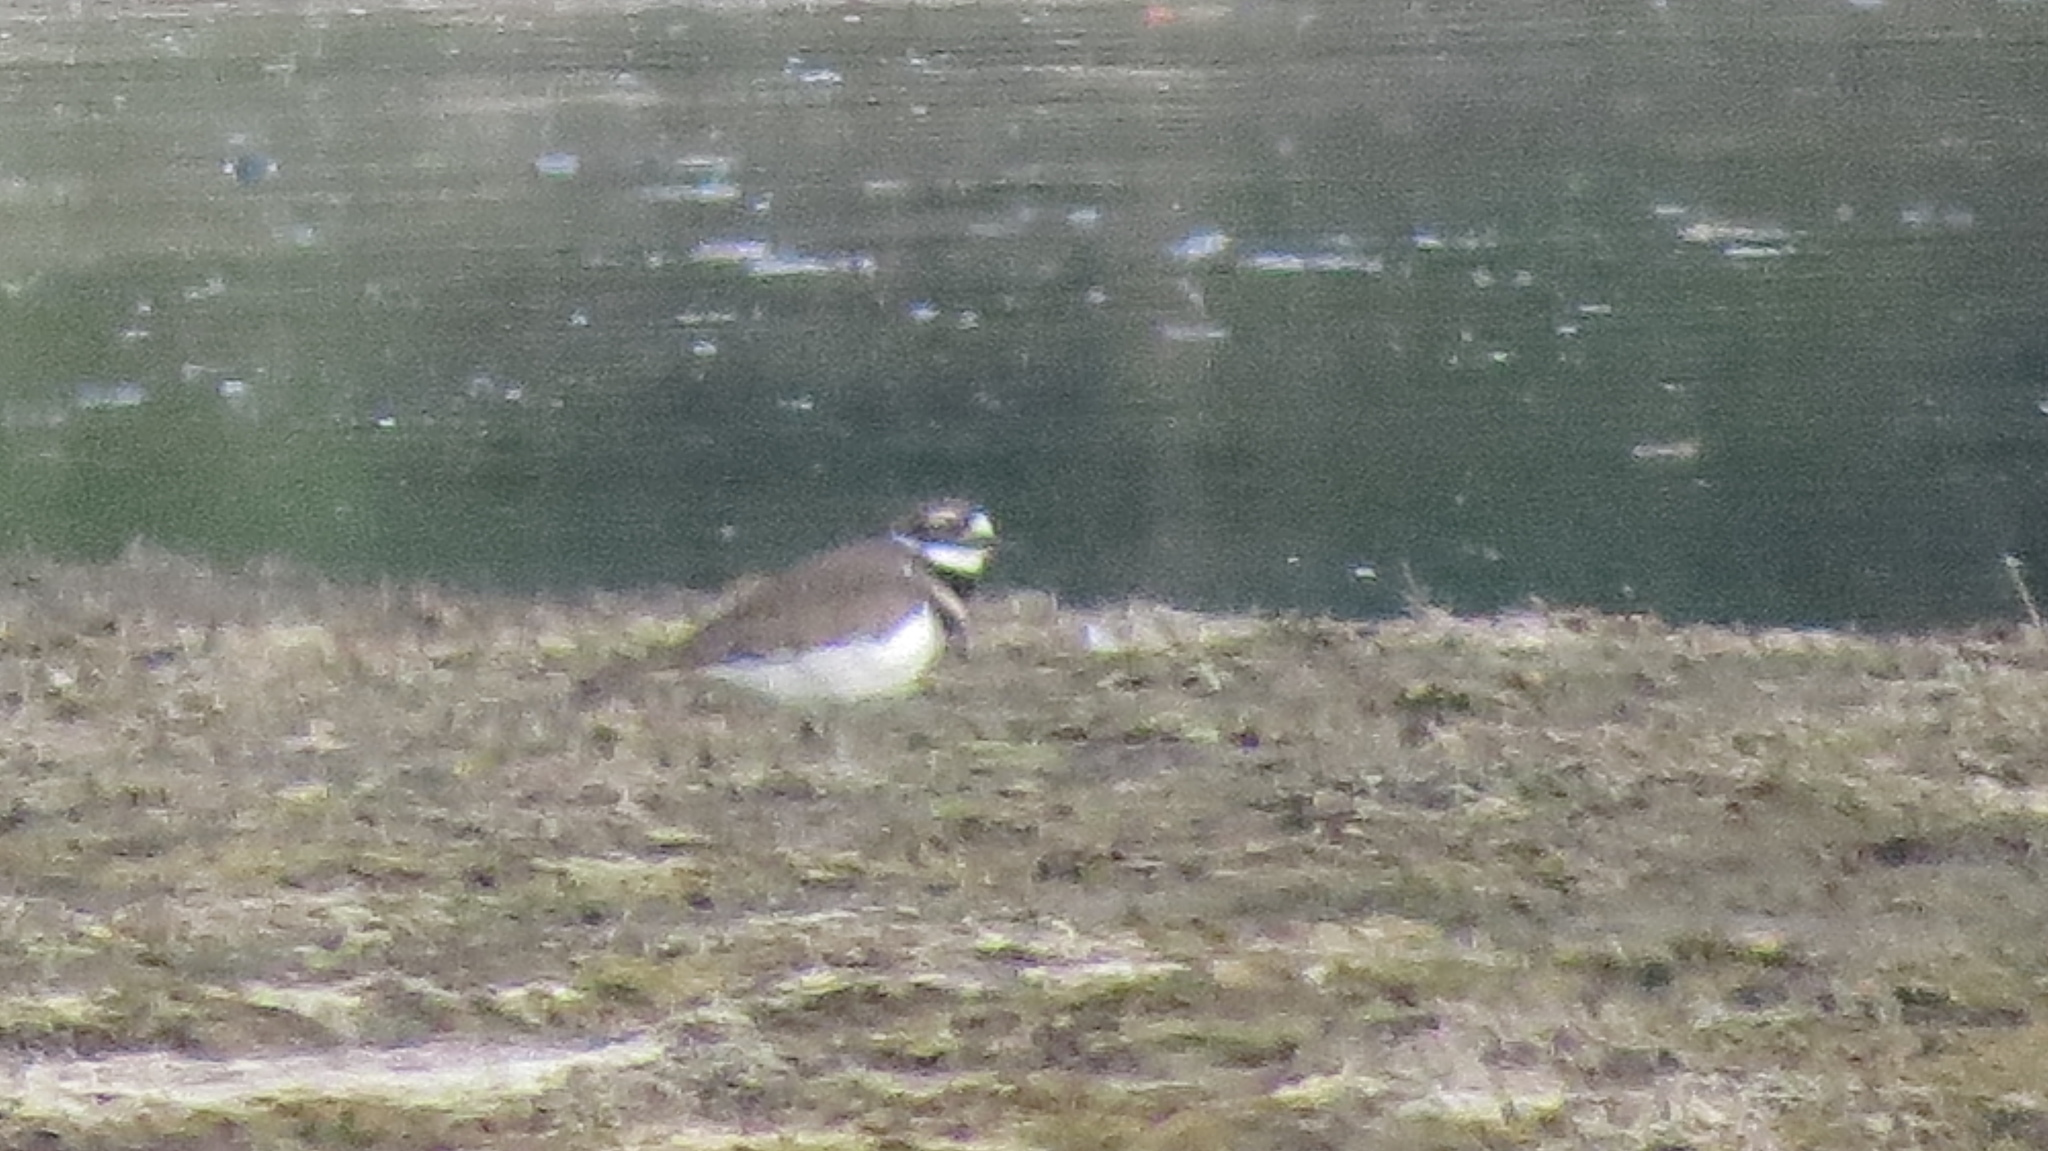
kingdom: Animalia
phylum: Chordata
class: Aves
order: Charadriiformes
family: Charadriidae
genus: Charadrius
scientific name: Charadrius vociferus
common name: Killdeer
